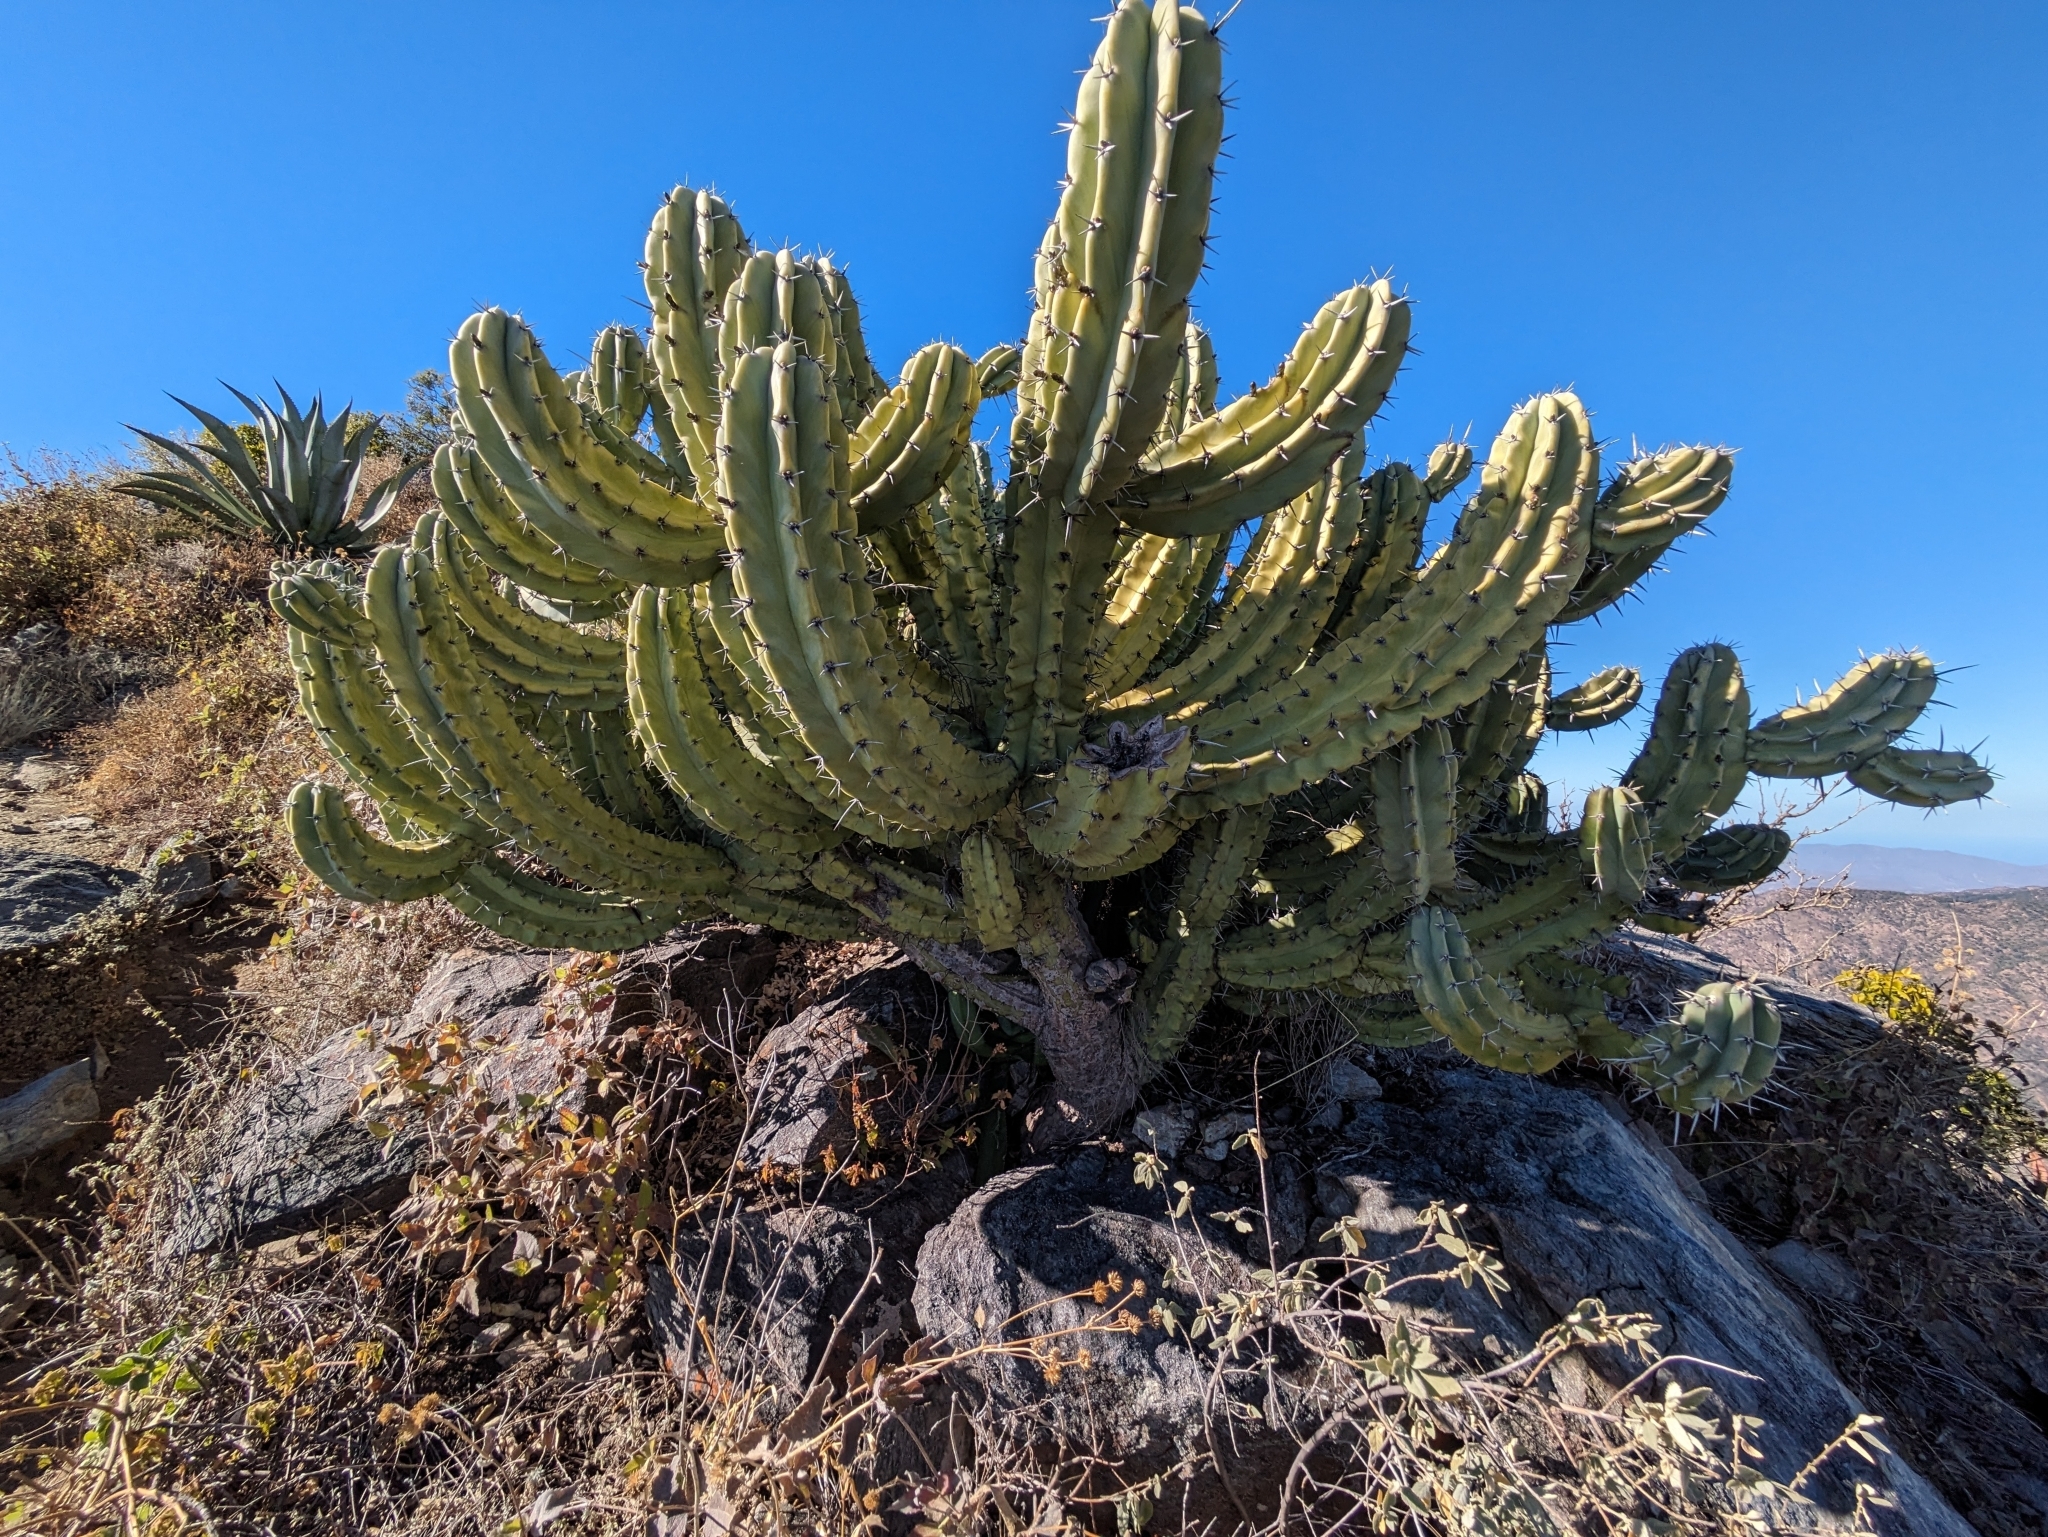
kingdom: Plantae
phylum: Tracheophyta
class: Magnoliopsida
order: Caryophyllales
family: Cactaceae
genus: Myrtillocactus
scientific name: Myrtillocactus cochal
